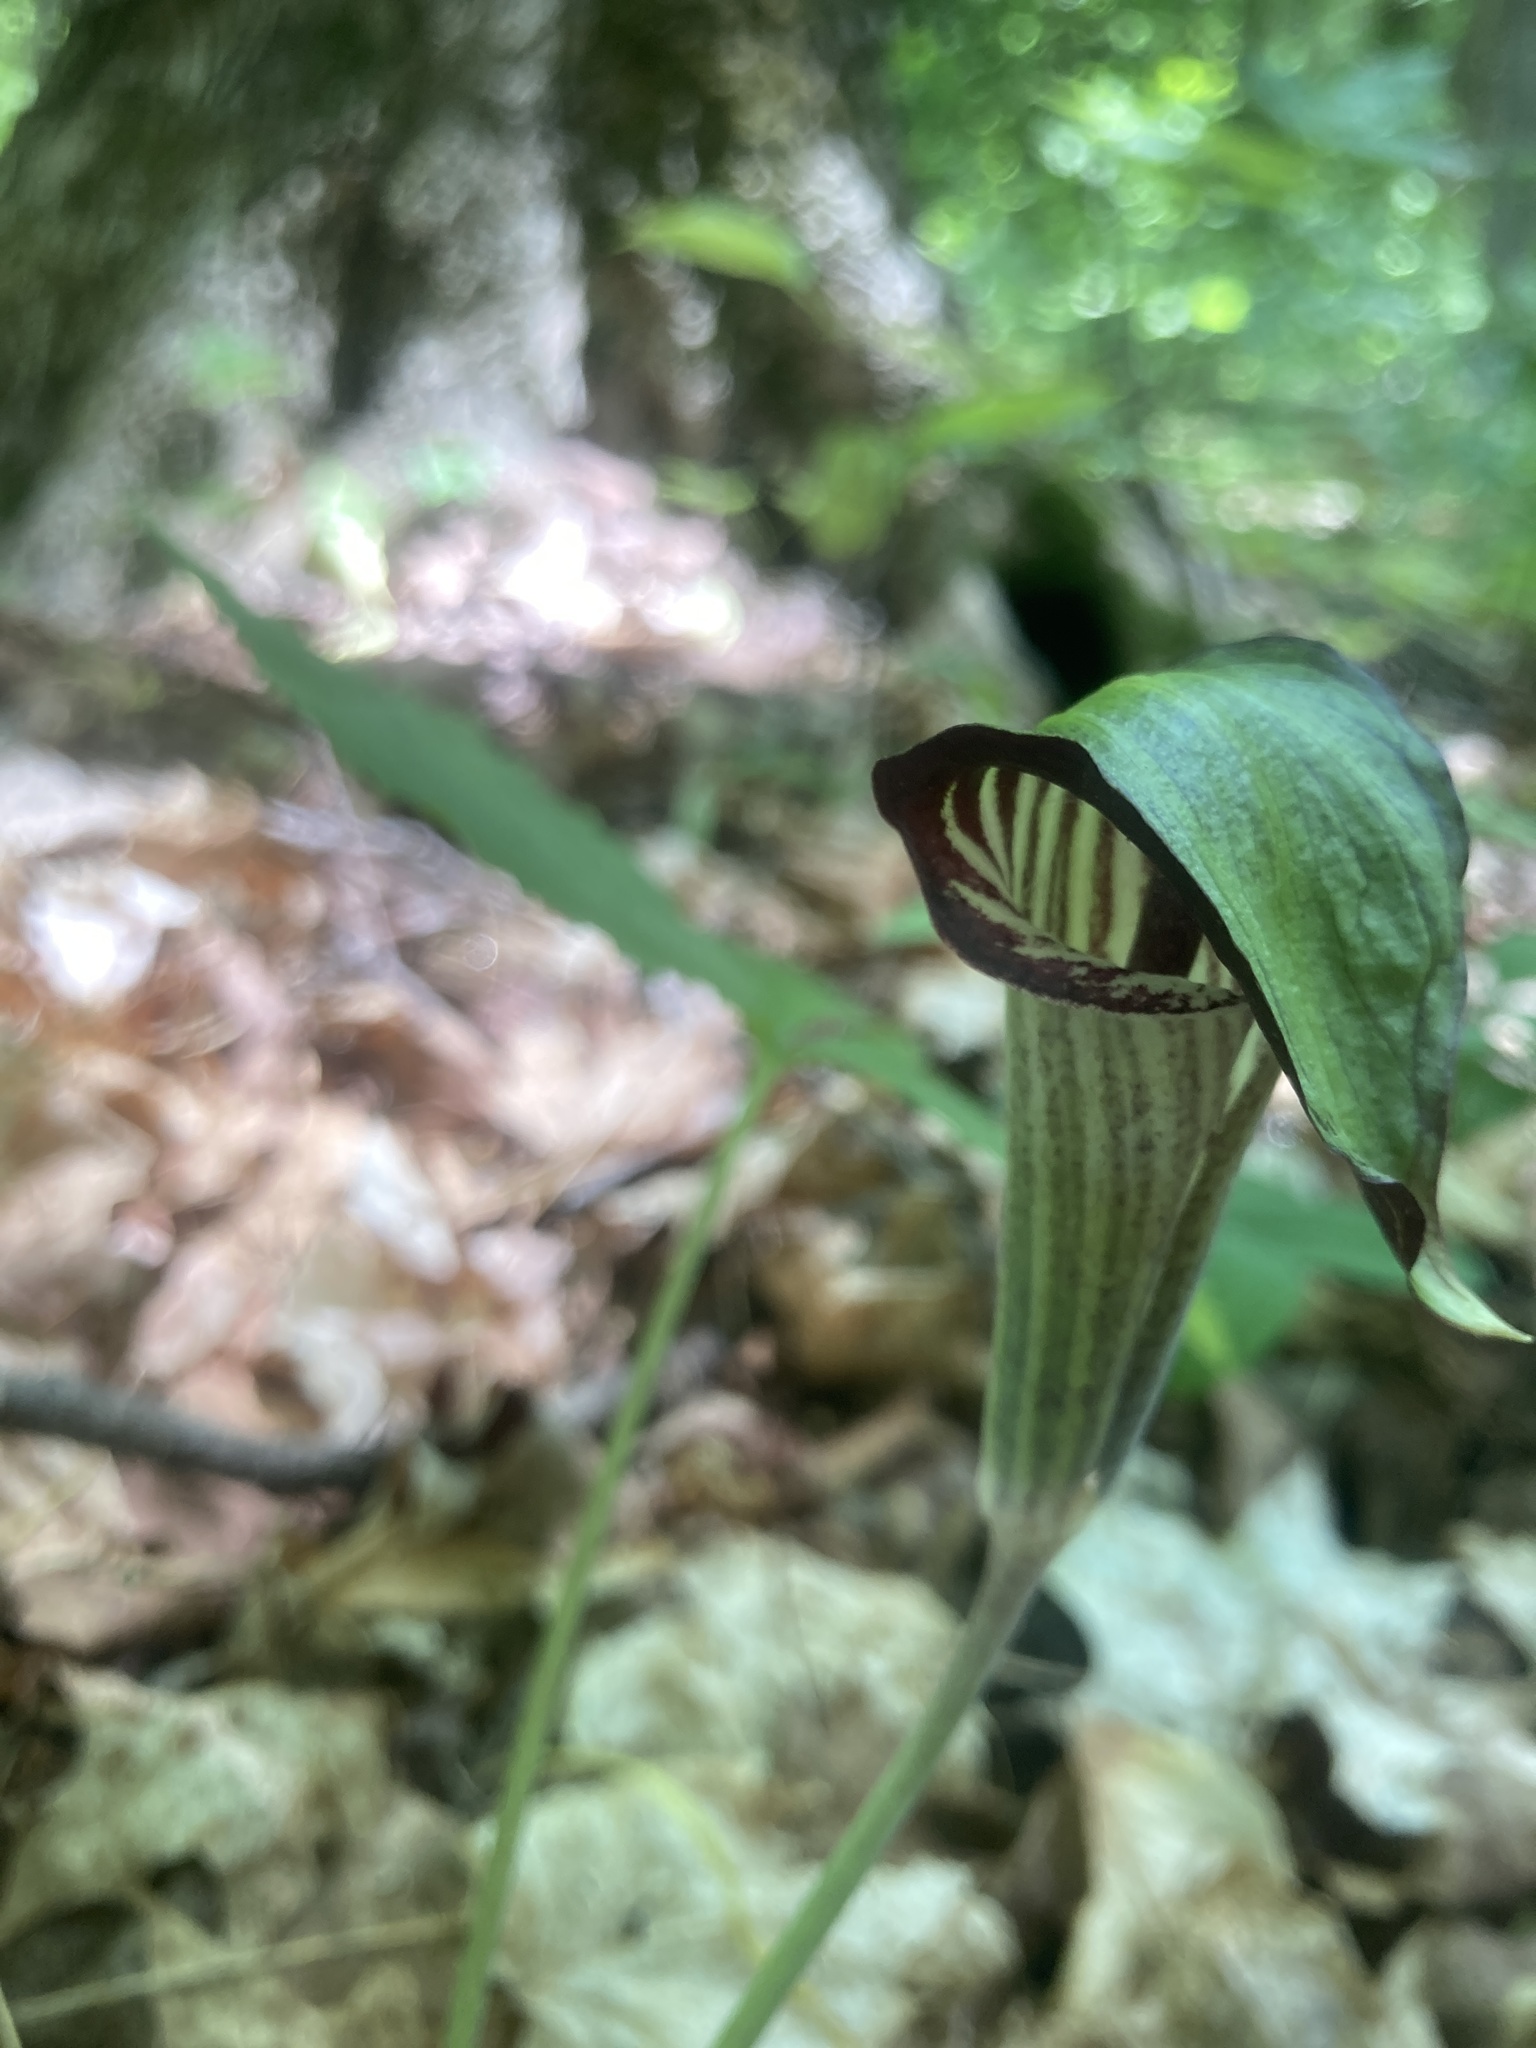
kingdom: Plantae
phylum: Tracheophyta
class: Liliopsida
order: Alismatales
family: Araceae
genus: Arisaema
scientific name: Arisaema triphyllum
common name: Jack-in-the-pulpit
